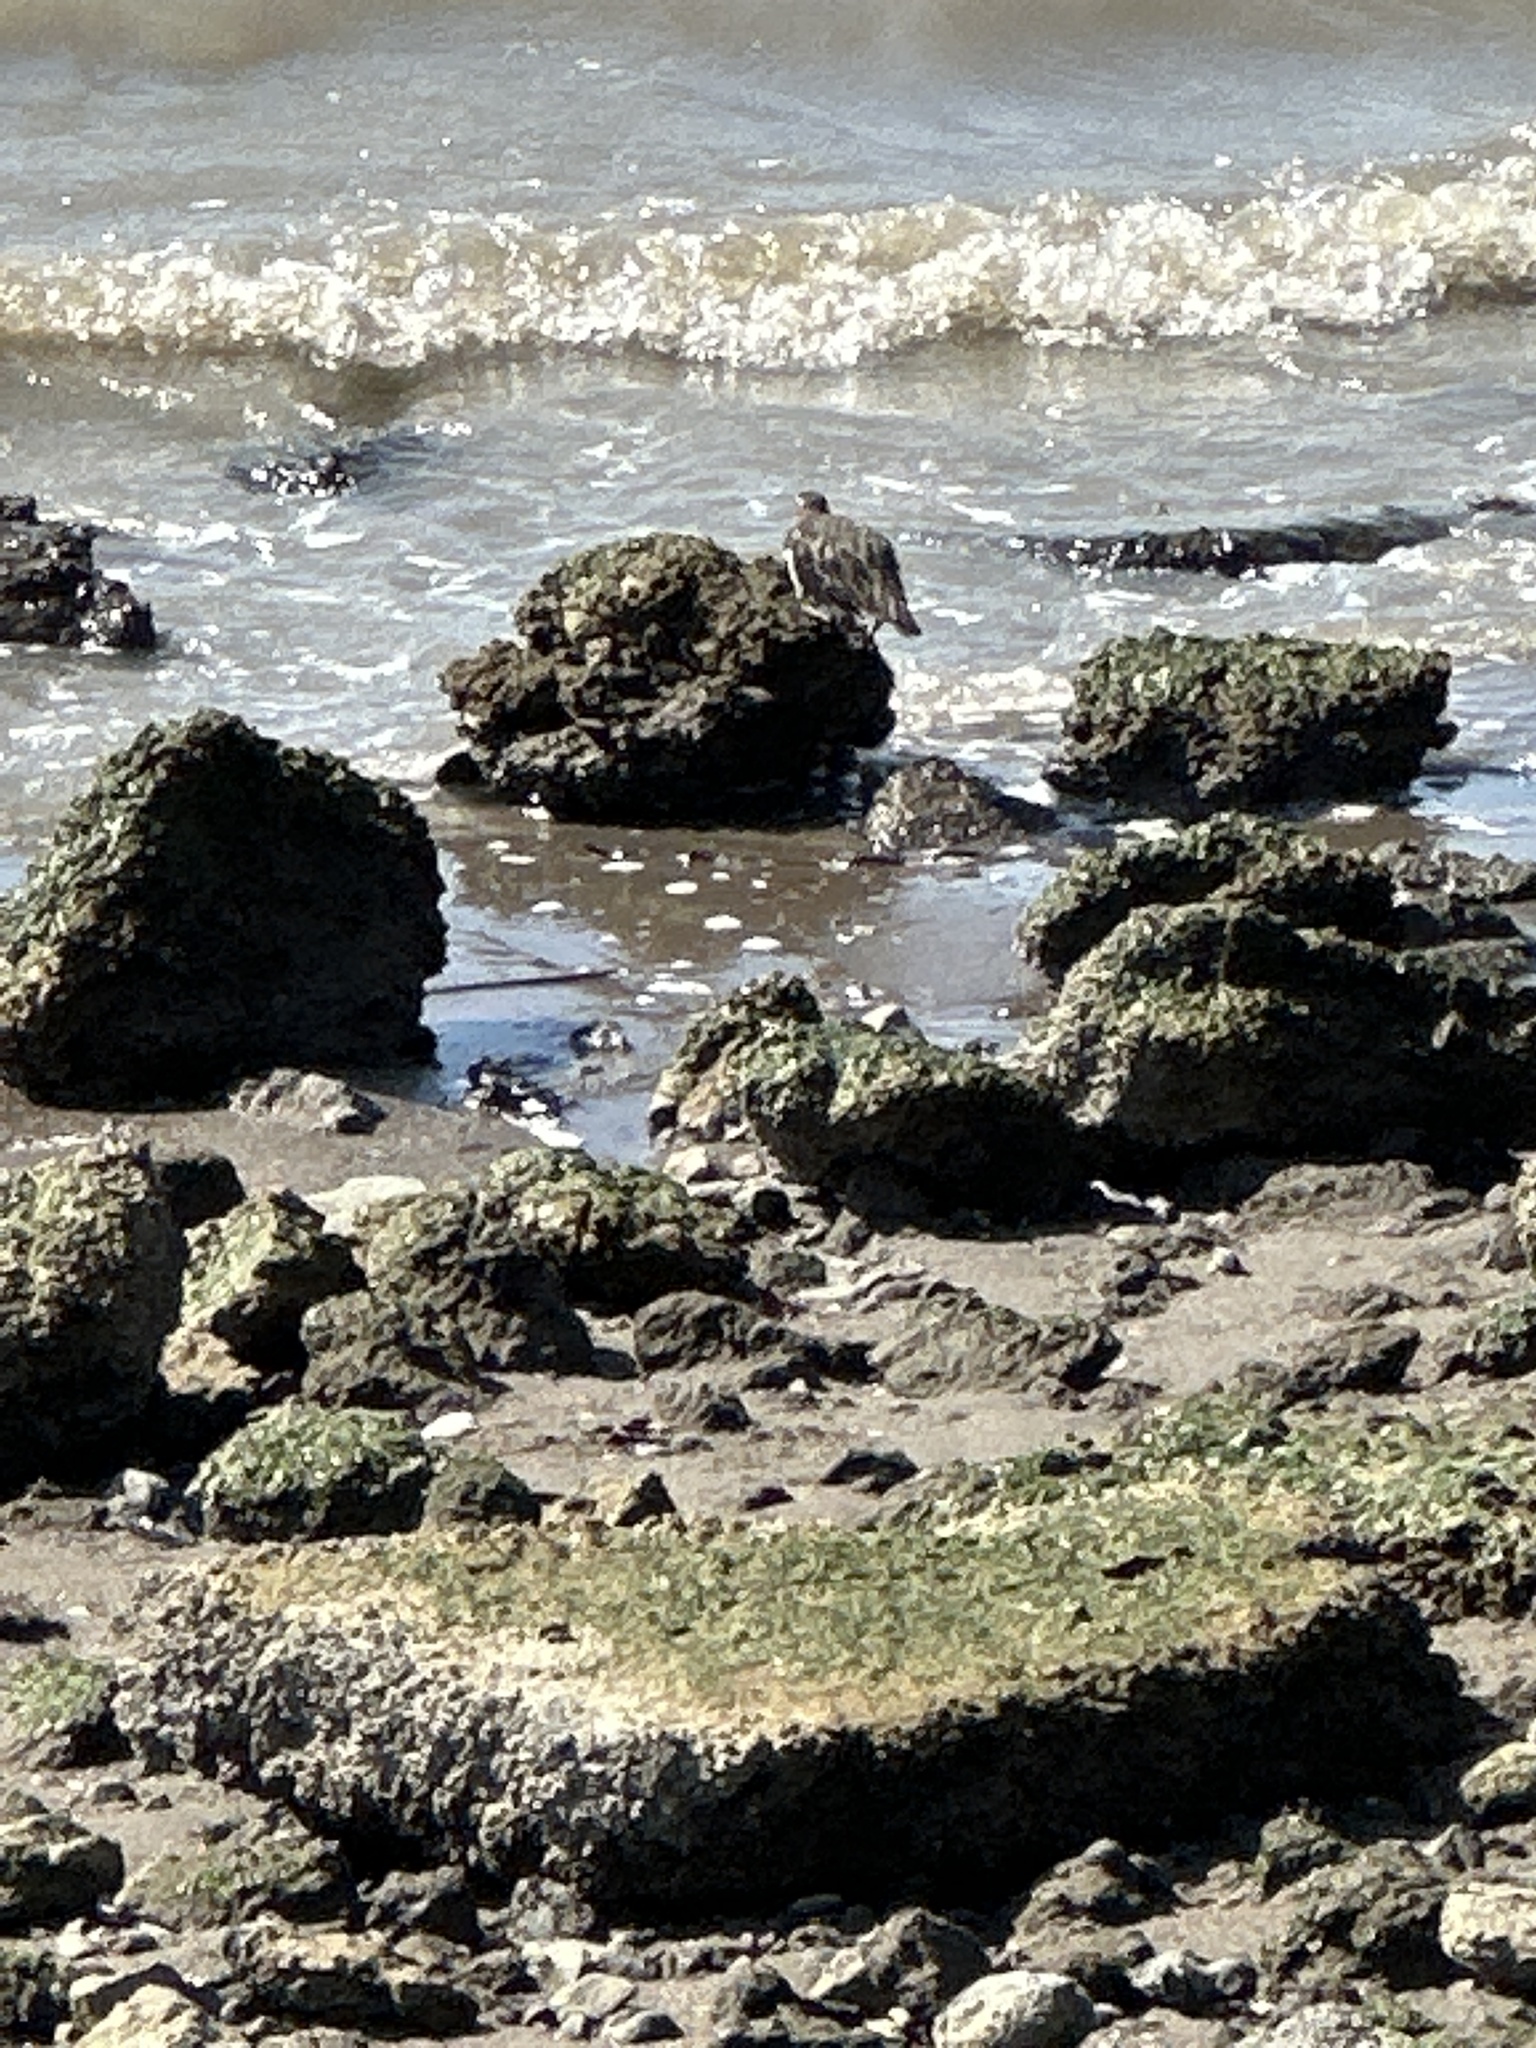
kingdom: Animalia
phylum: Chordata
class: Aves
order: Charadriiformes
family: Scolopacidae
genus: Arenaria
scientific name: Arenaria melanocephala
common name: Black turnstone
